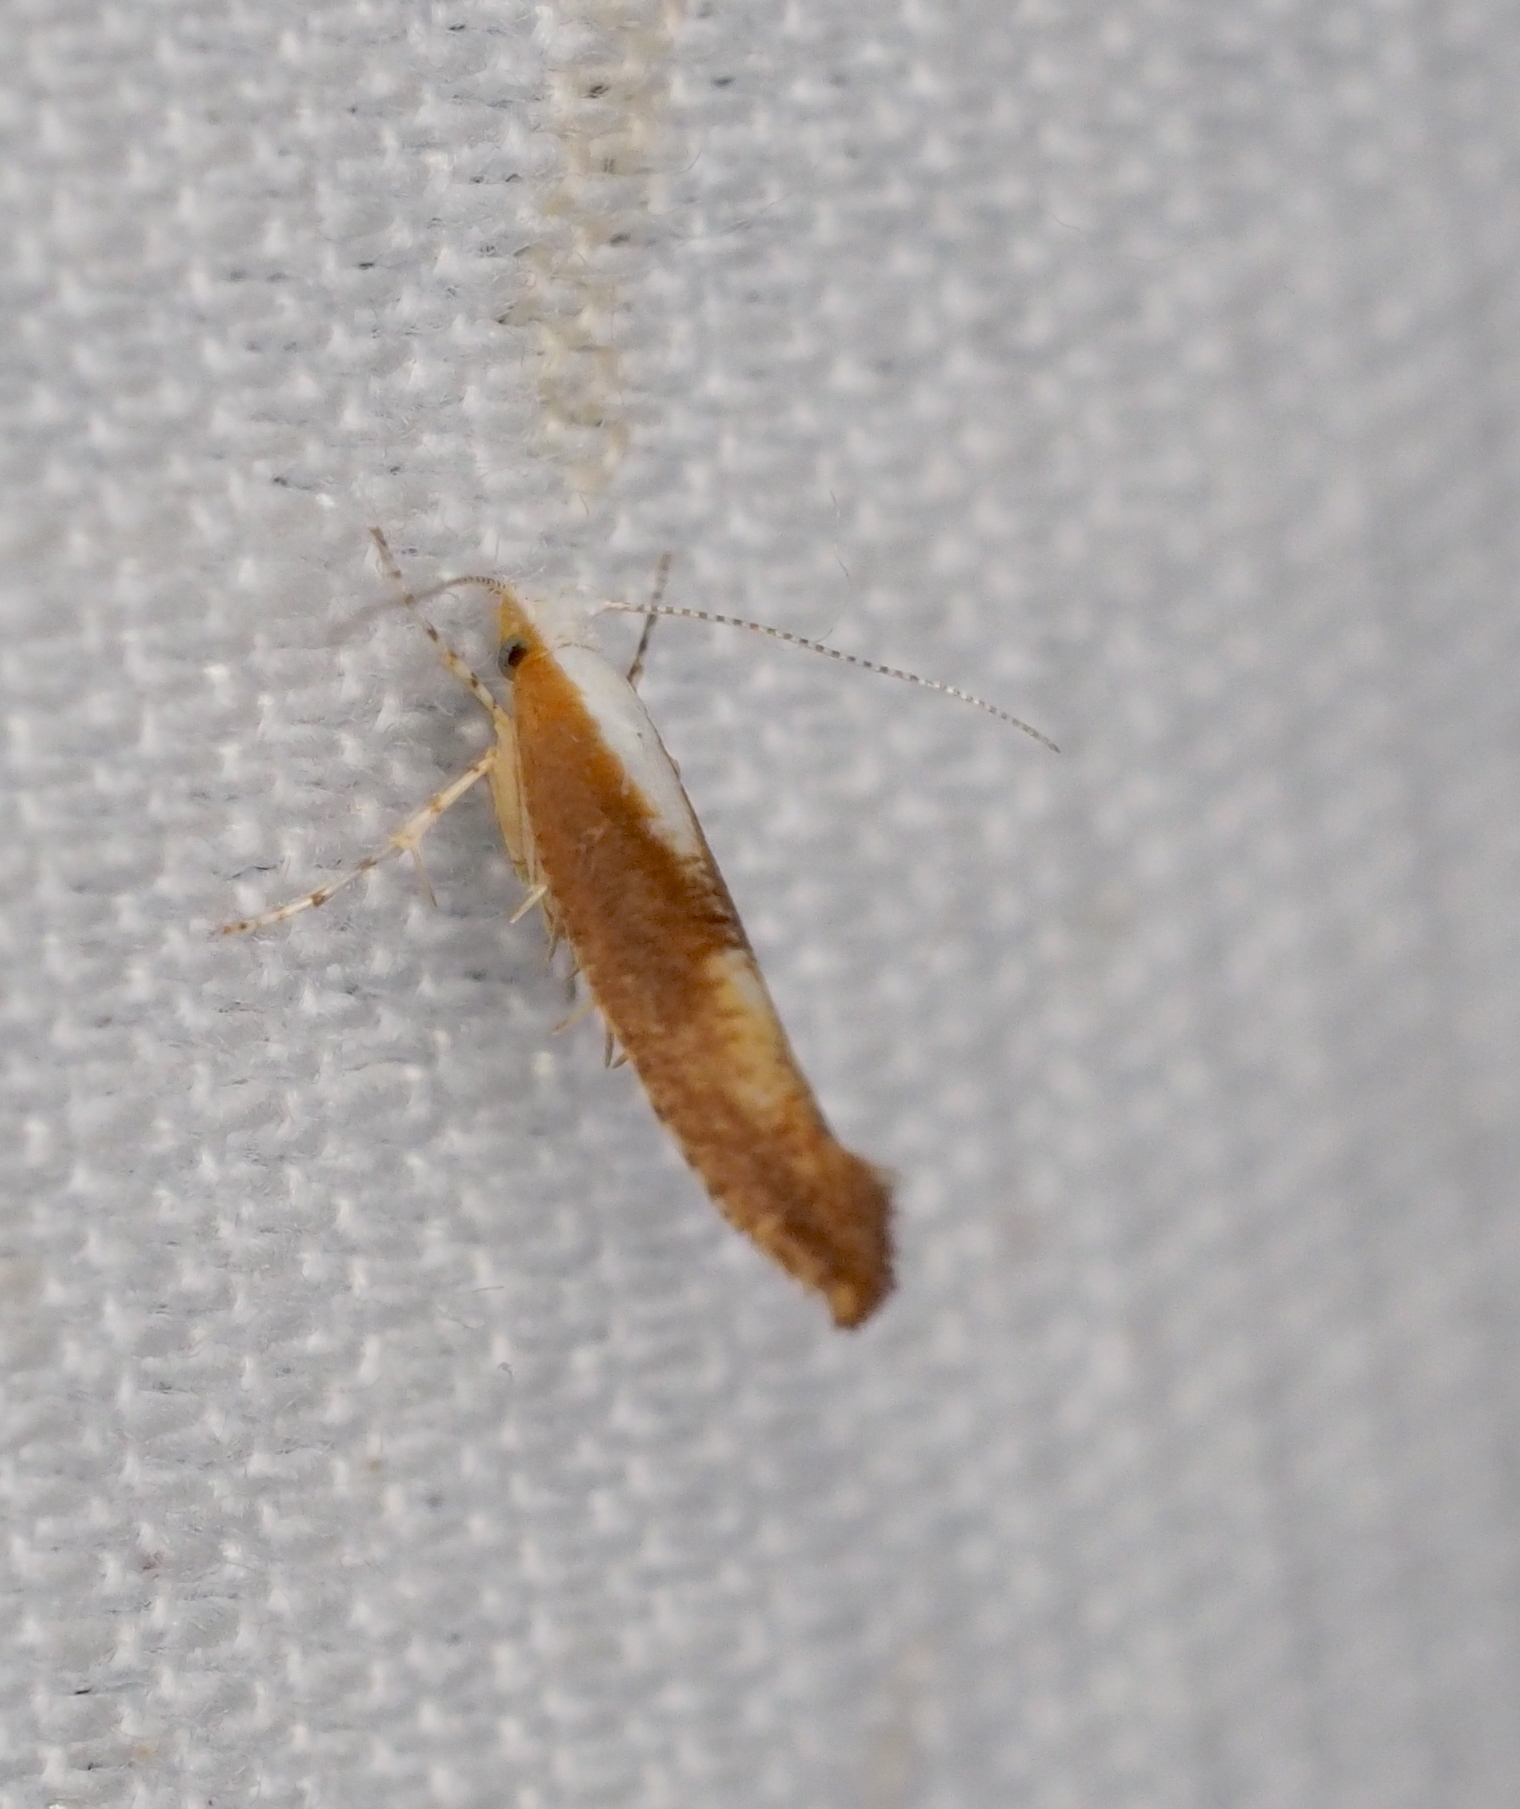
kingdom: Animalia
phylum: Arthropoda
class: Insecta
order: Lepidoptera
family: Argyresthiidae
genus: Argyresthia
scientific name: Argyresthia albistria
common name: Purple argent
